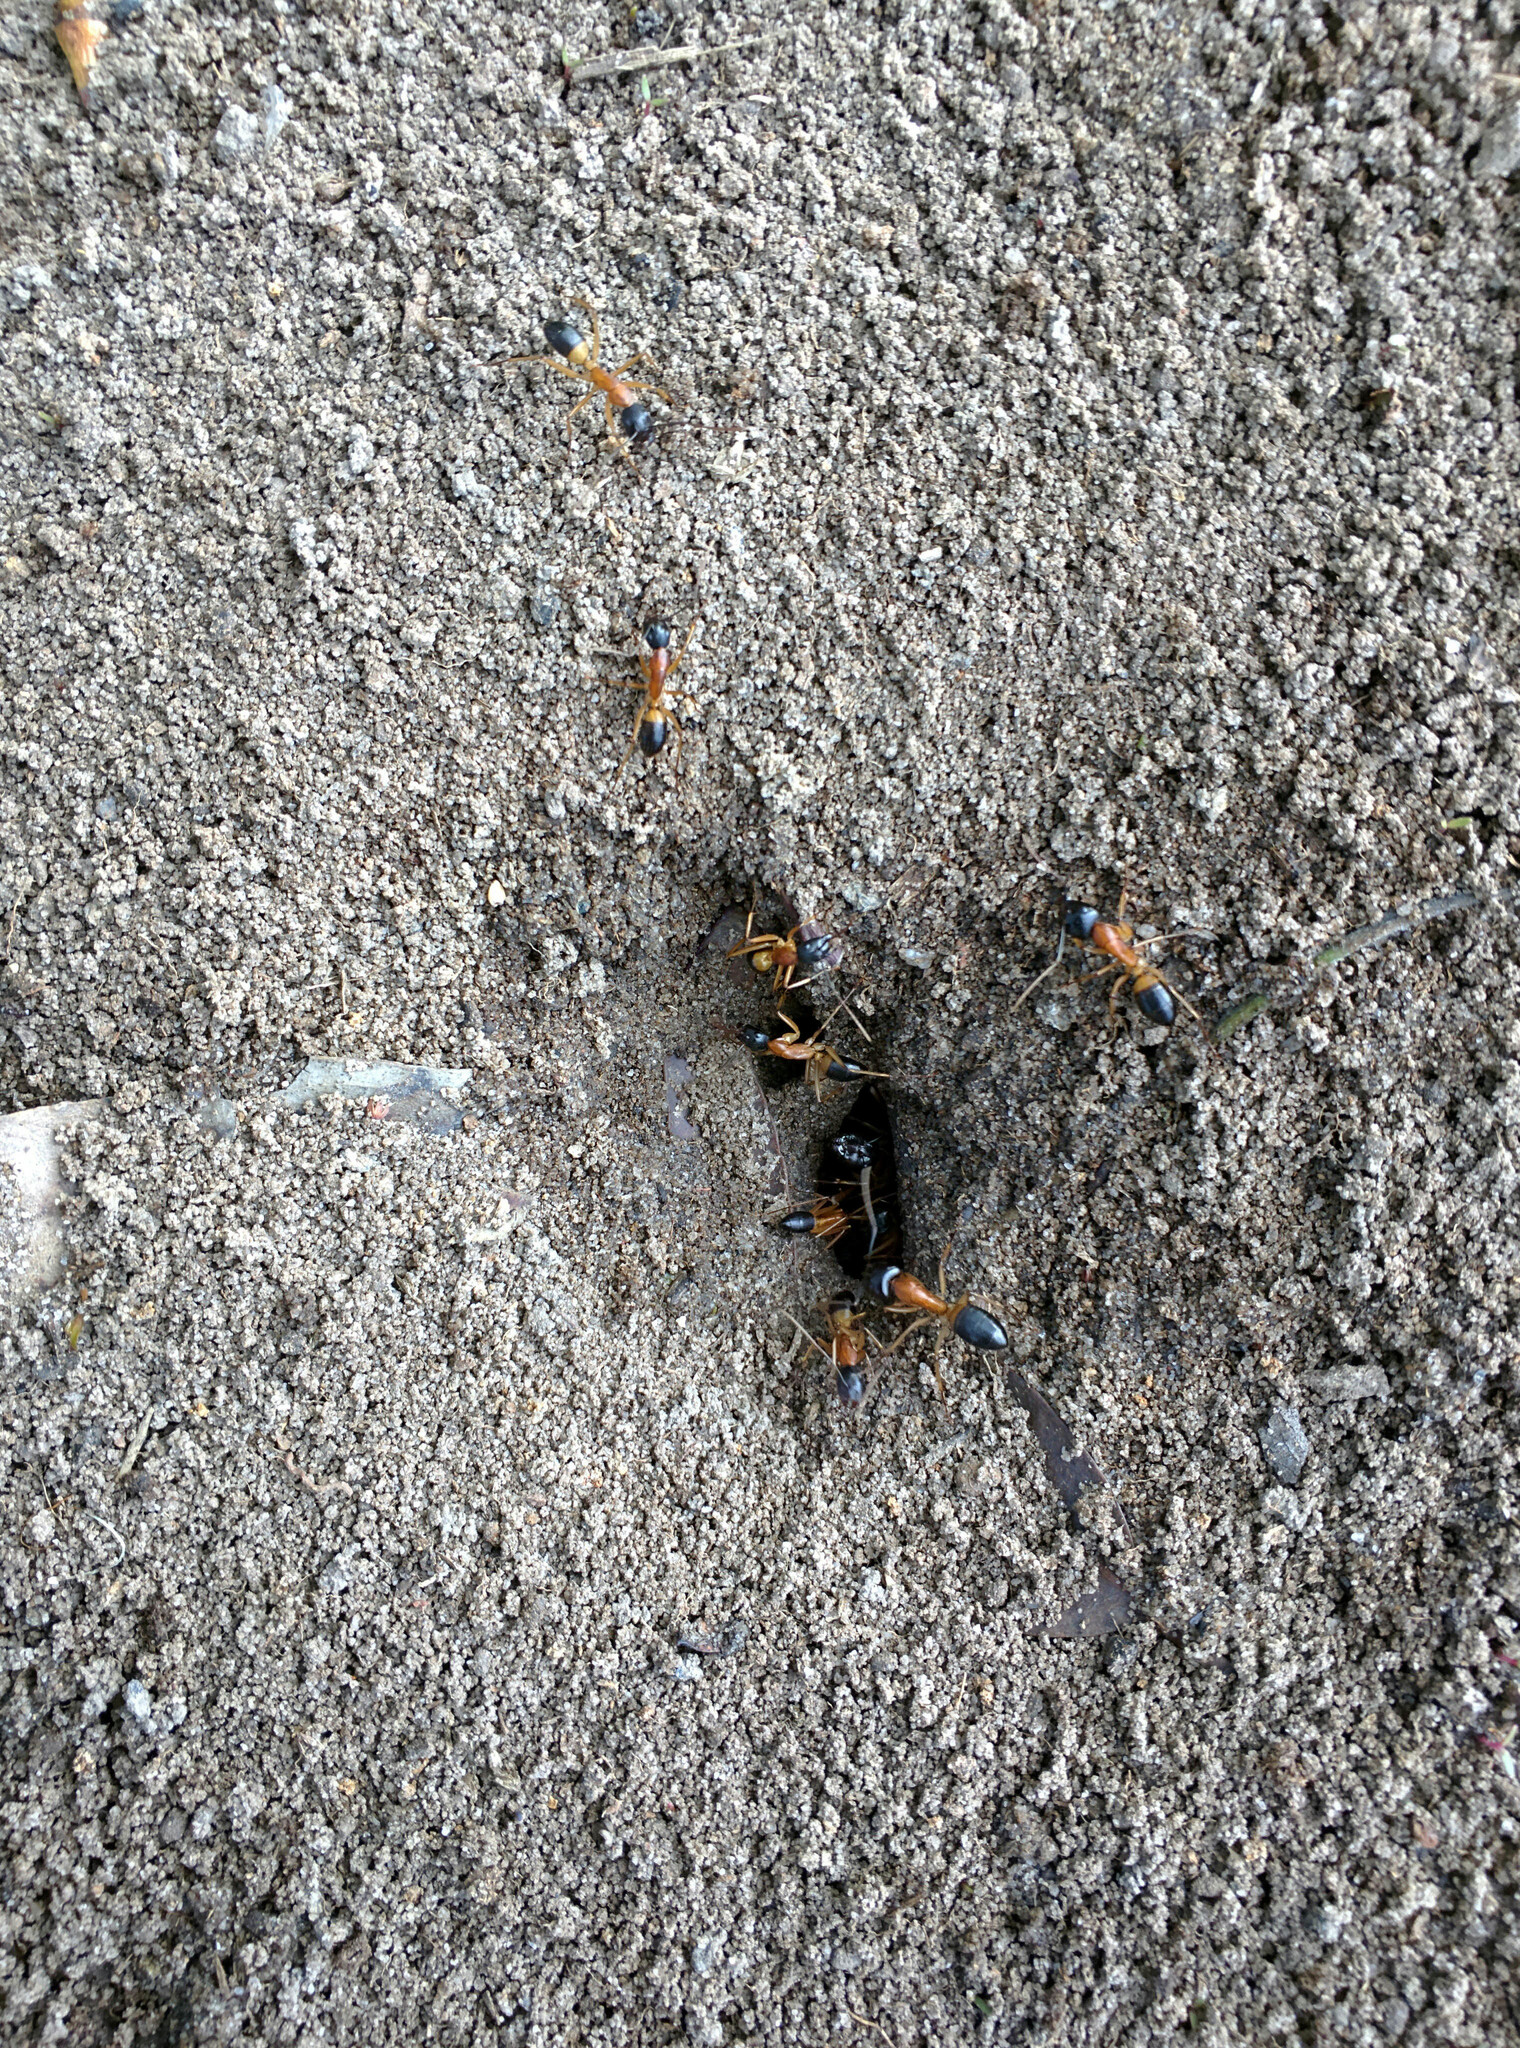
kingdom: Animalia
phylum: Arthropoda
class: Insecta
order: Hymenoptera
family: Formicidae
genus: Camponotus
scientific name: Camponotus consobrinus
